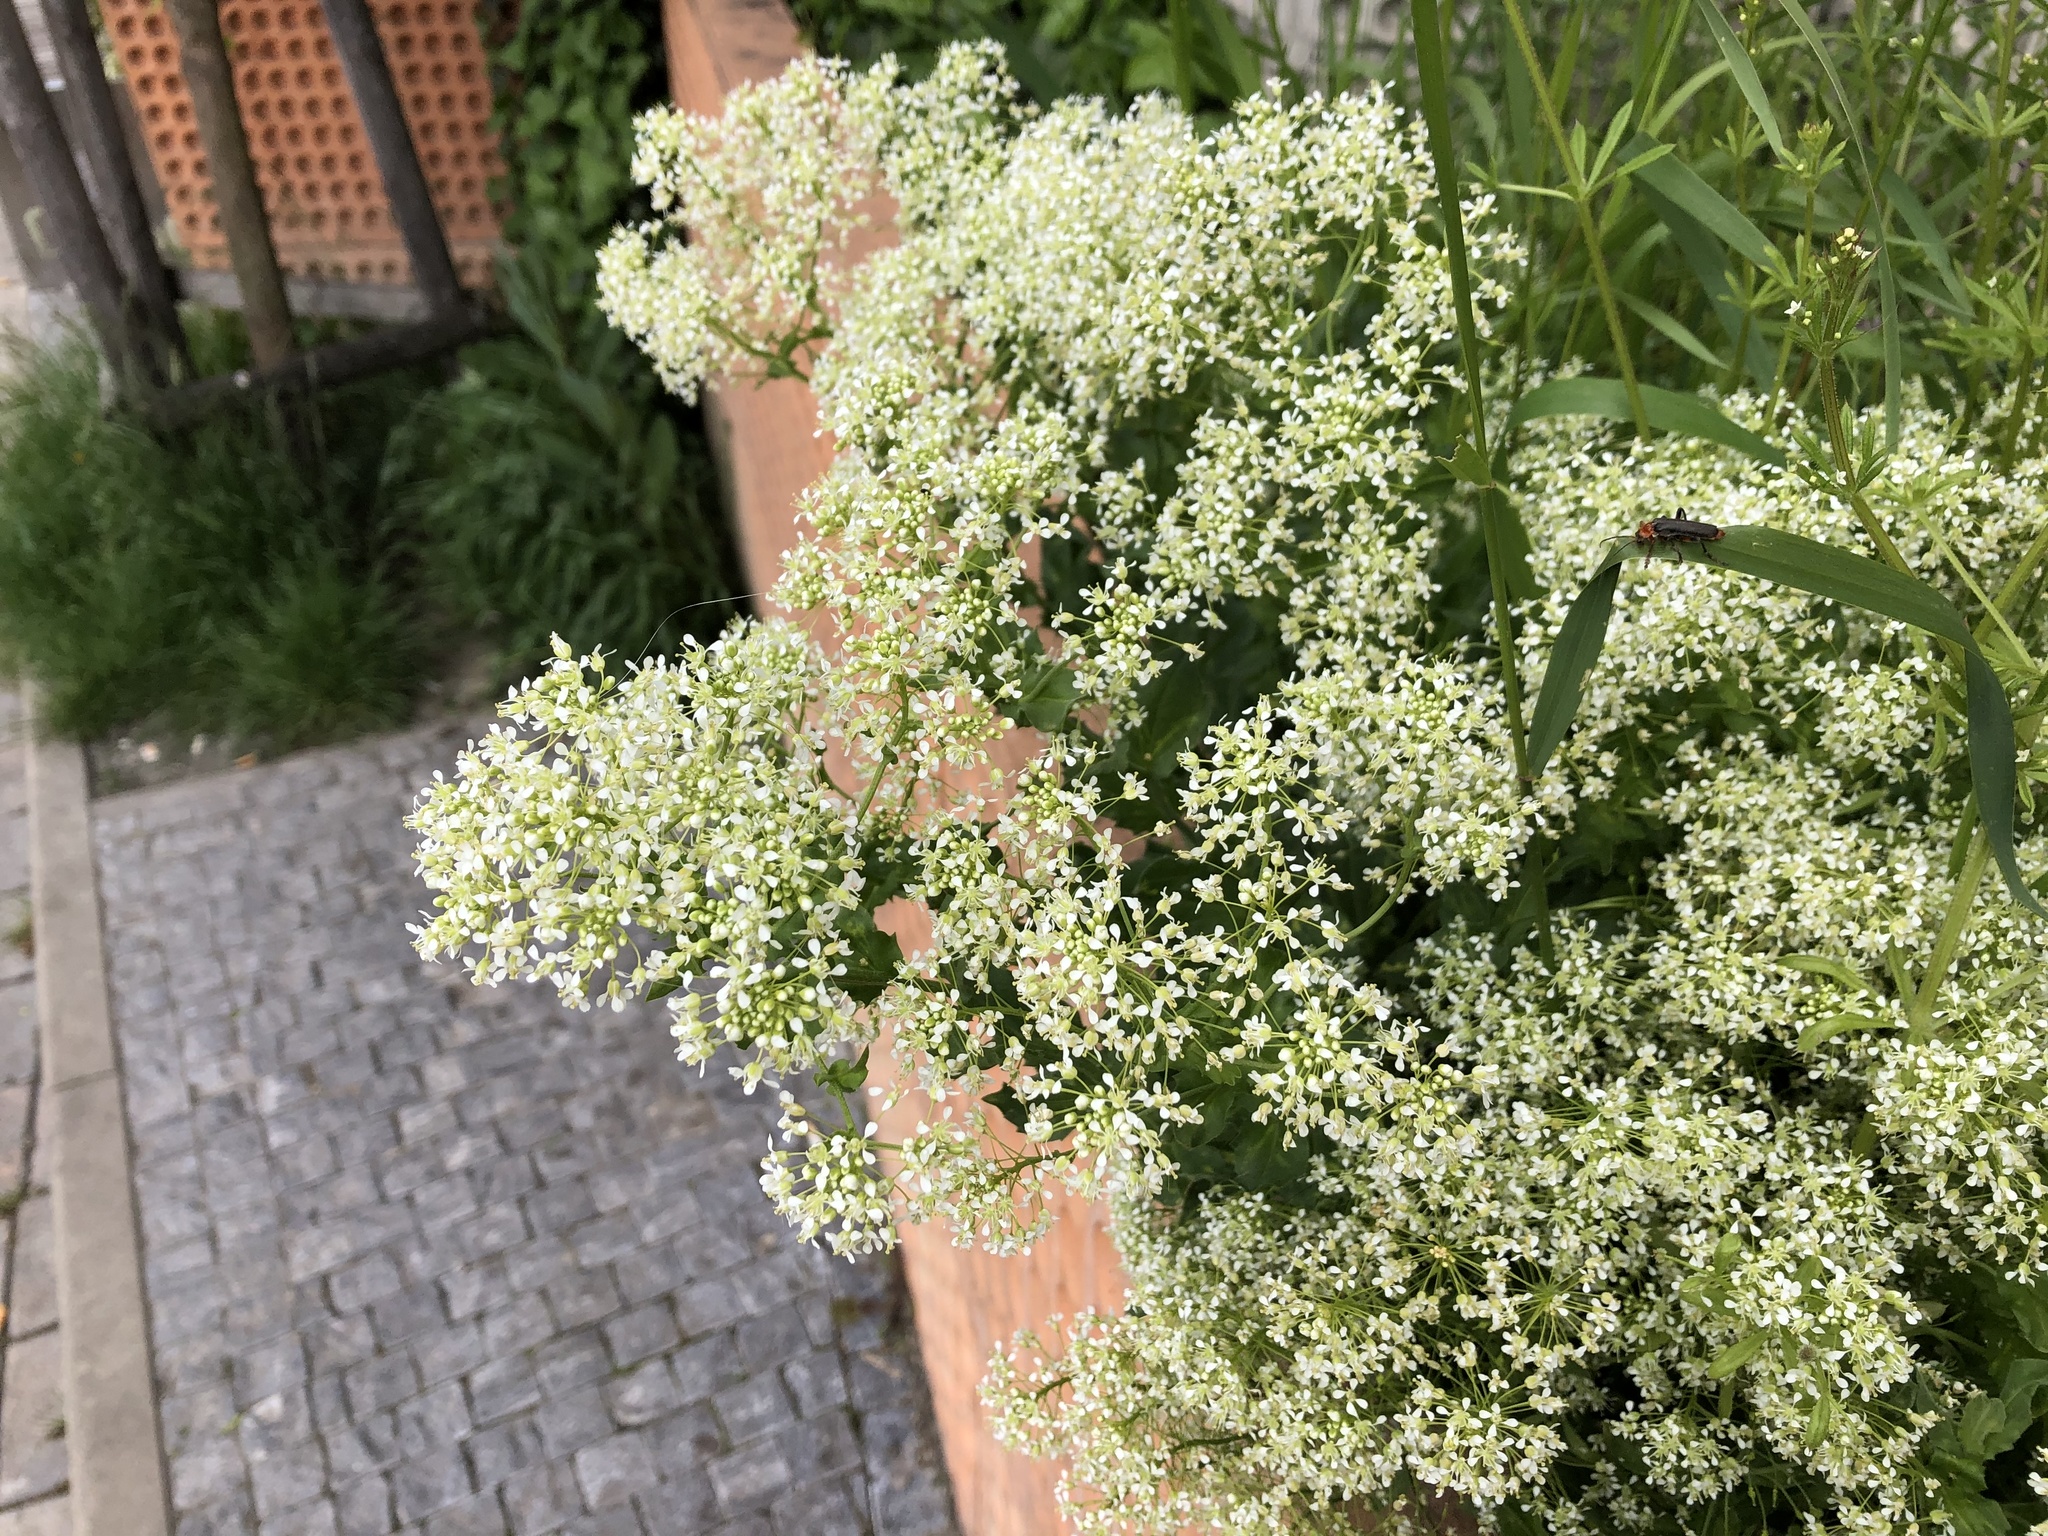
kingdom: Plantae
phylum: Tracheophyta
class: Magnoliopsida
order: Brassicales
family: Brassicaceae
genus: Lepidium
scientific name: Lepidium draba
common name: Hoary cress
